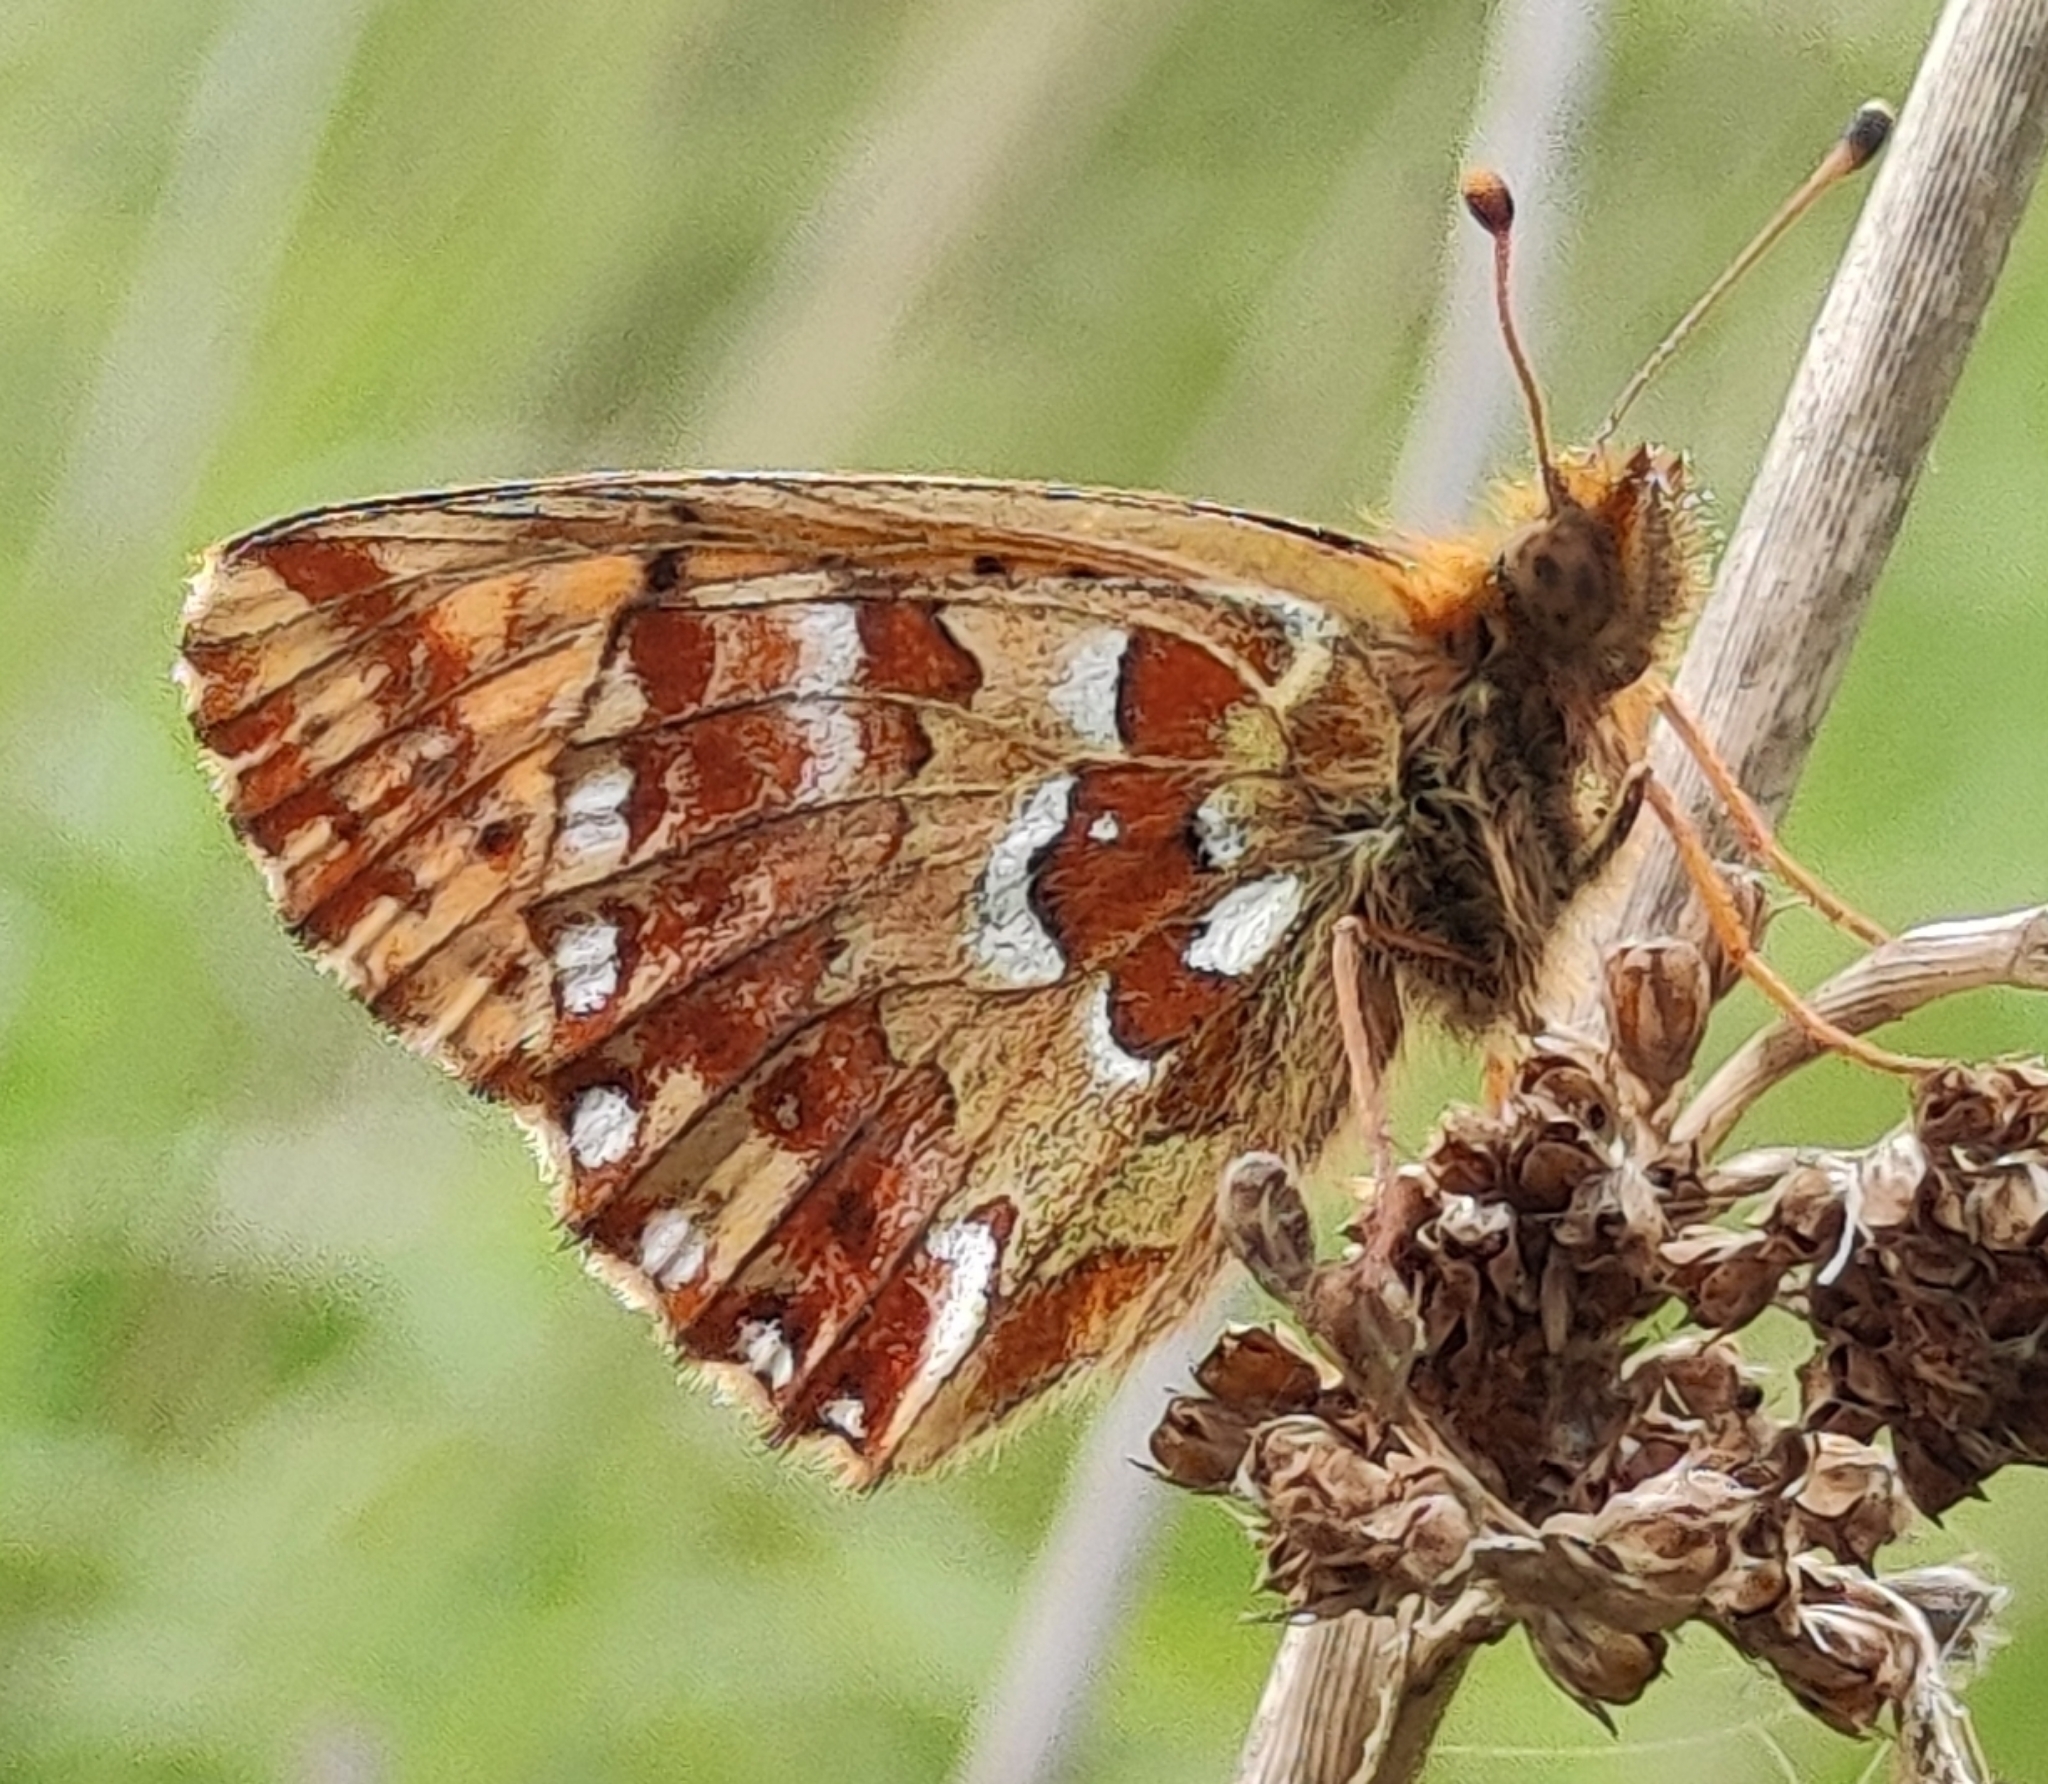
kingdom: Animalia
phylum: Arthropoda
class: Insecta
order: Lepidoptera
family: Nymphalidae
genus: Boloria
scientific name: Boloria aquilonaris
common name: Cranberry fritillary
